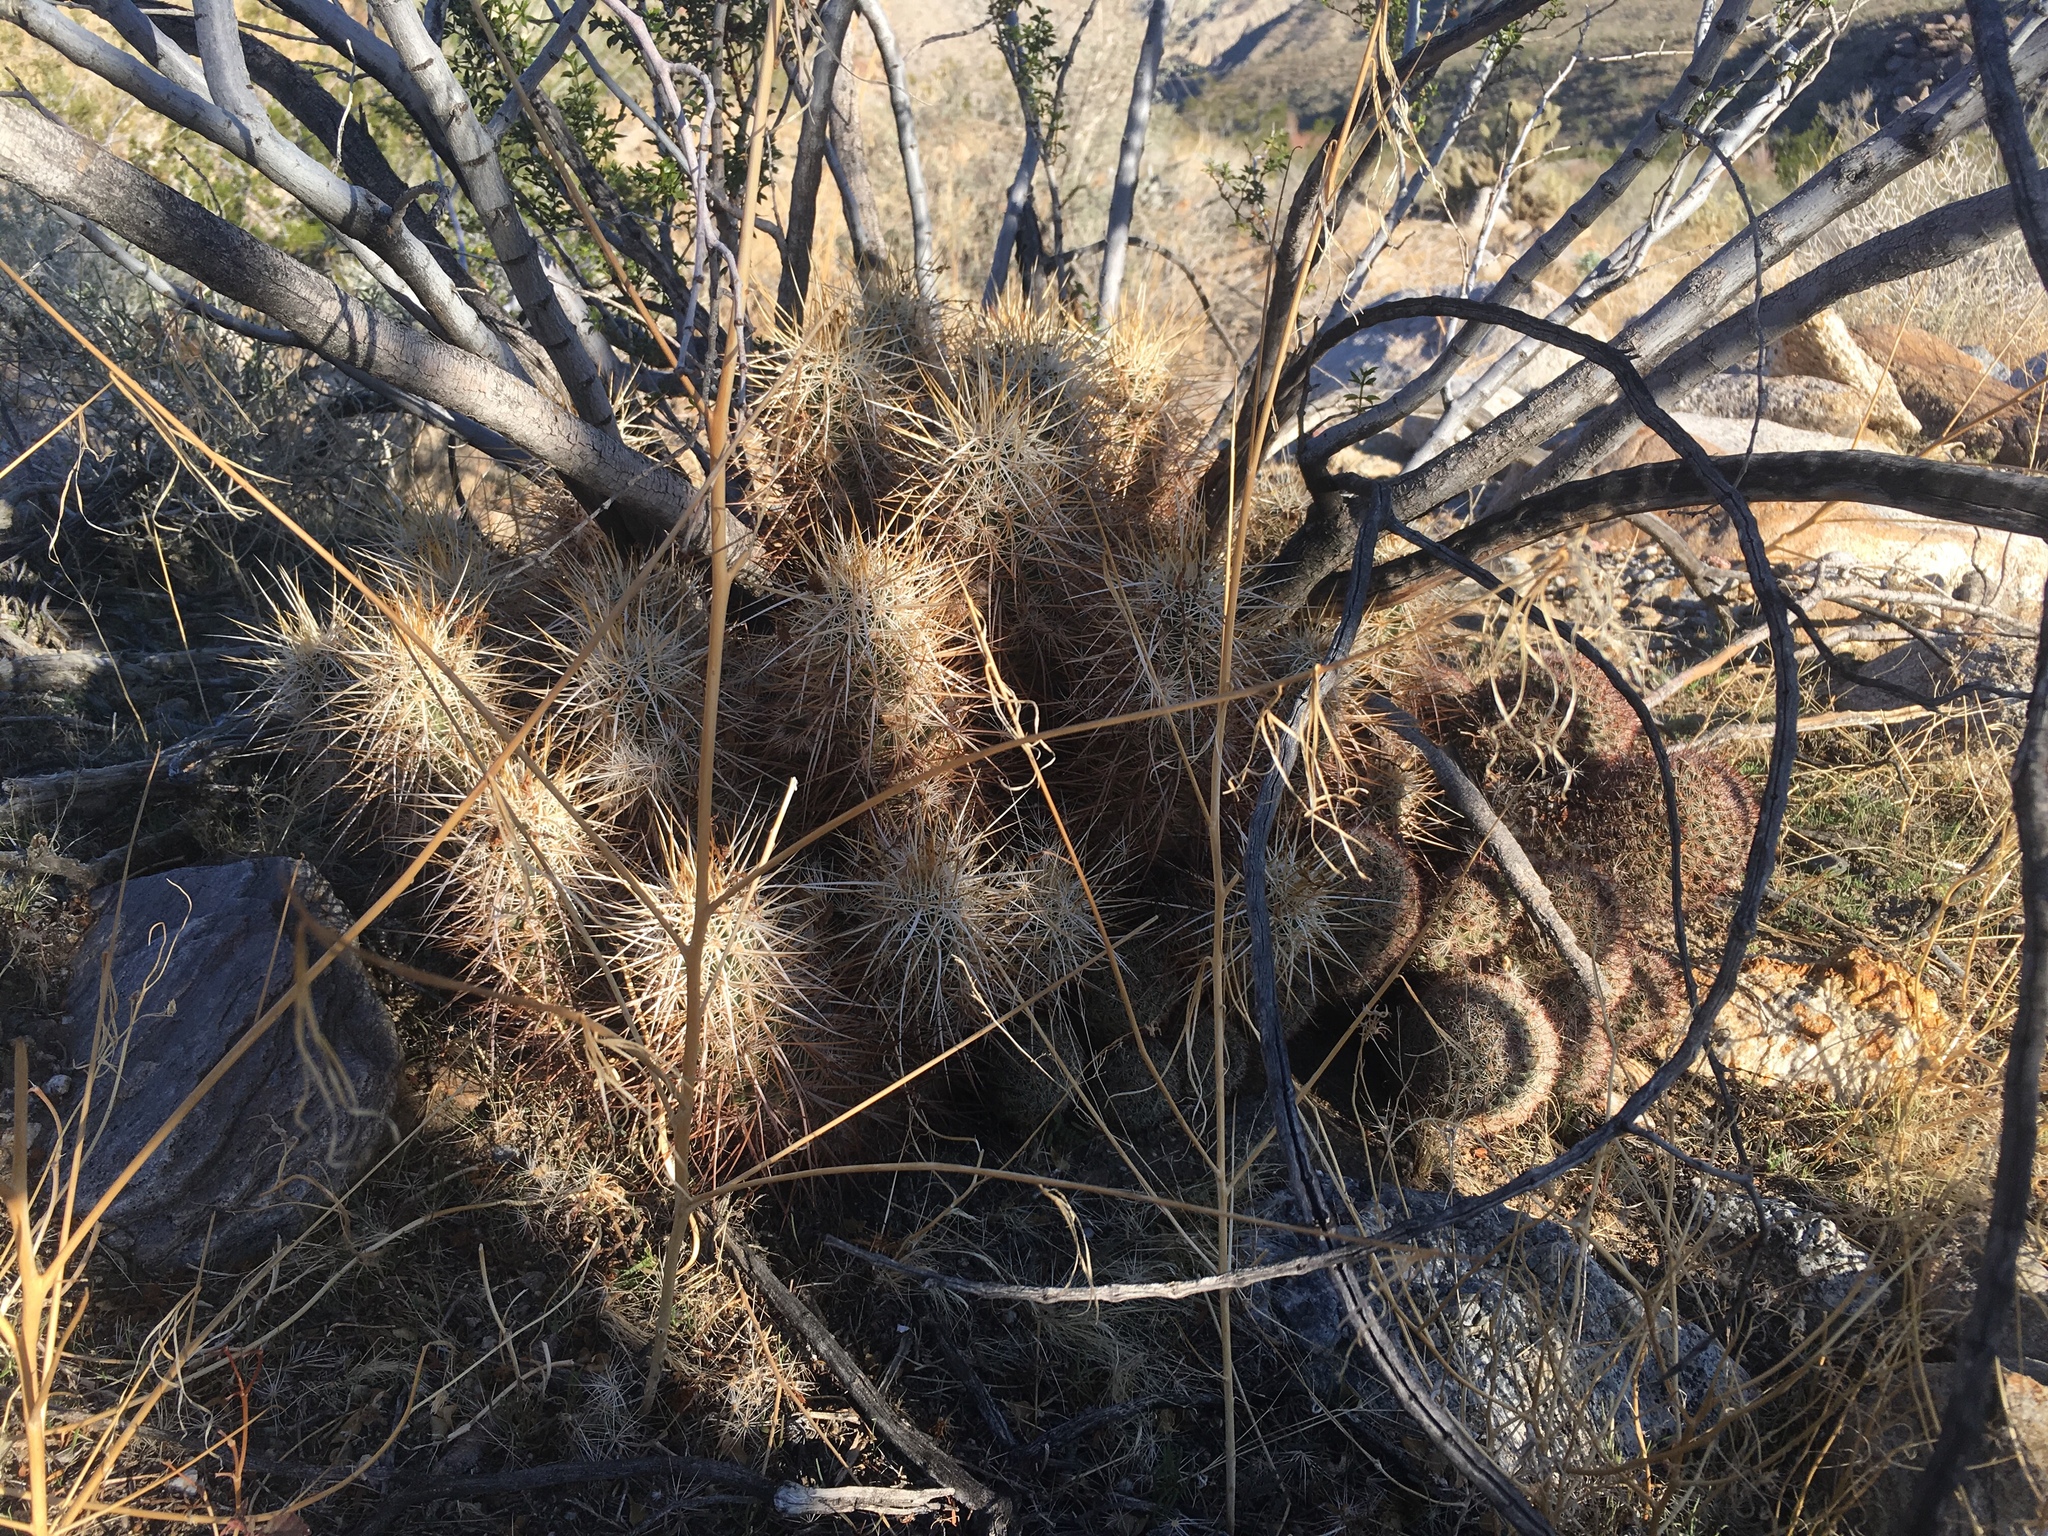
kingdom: Plantae
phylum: Tracheophyta
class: Magnoliopsida
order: Caryophyllales
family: Cactaceae
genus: Echinocereus
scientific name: Echinocereus engelmannii
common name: Engelmann's hedgehog cactus
